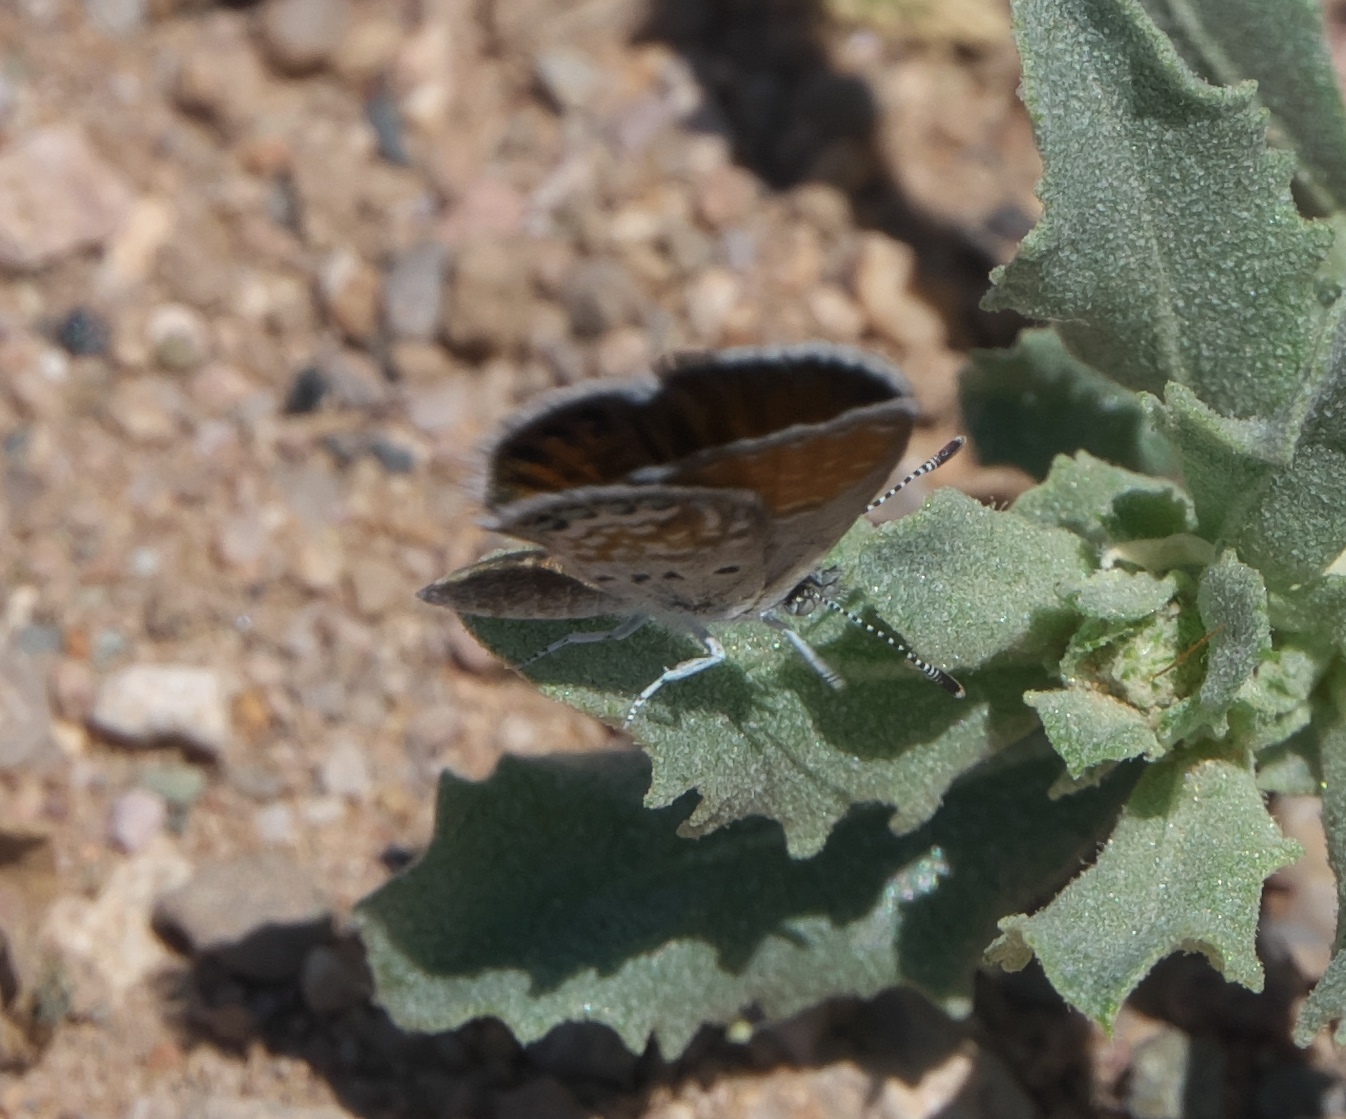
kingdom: Animalia
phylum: Arthropoda
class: Insecta
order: Lepidoptera
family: Lycaenidae
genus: Brephidium
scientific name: Brephidium exilis
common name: Pygmy blue
